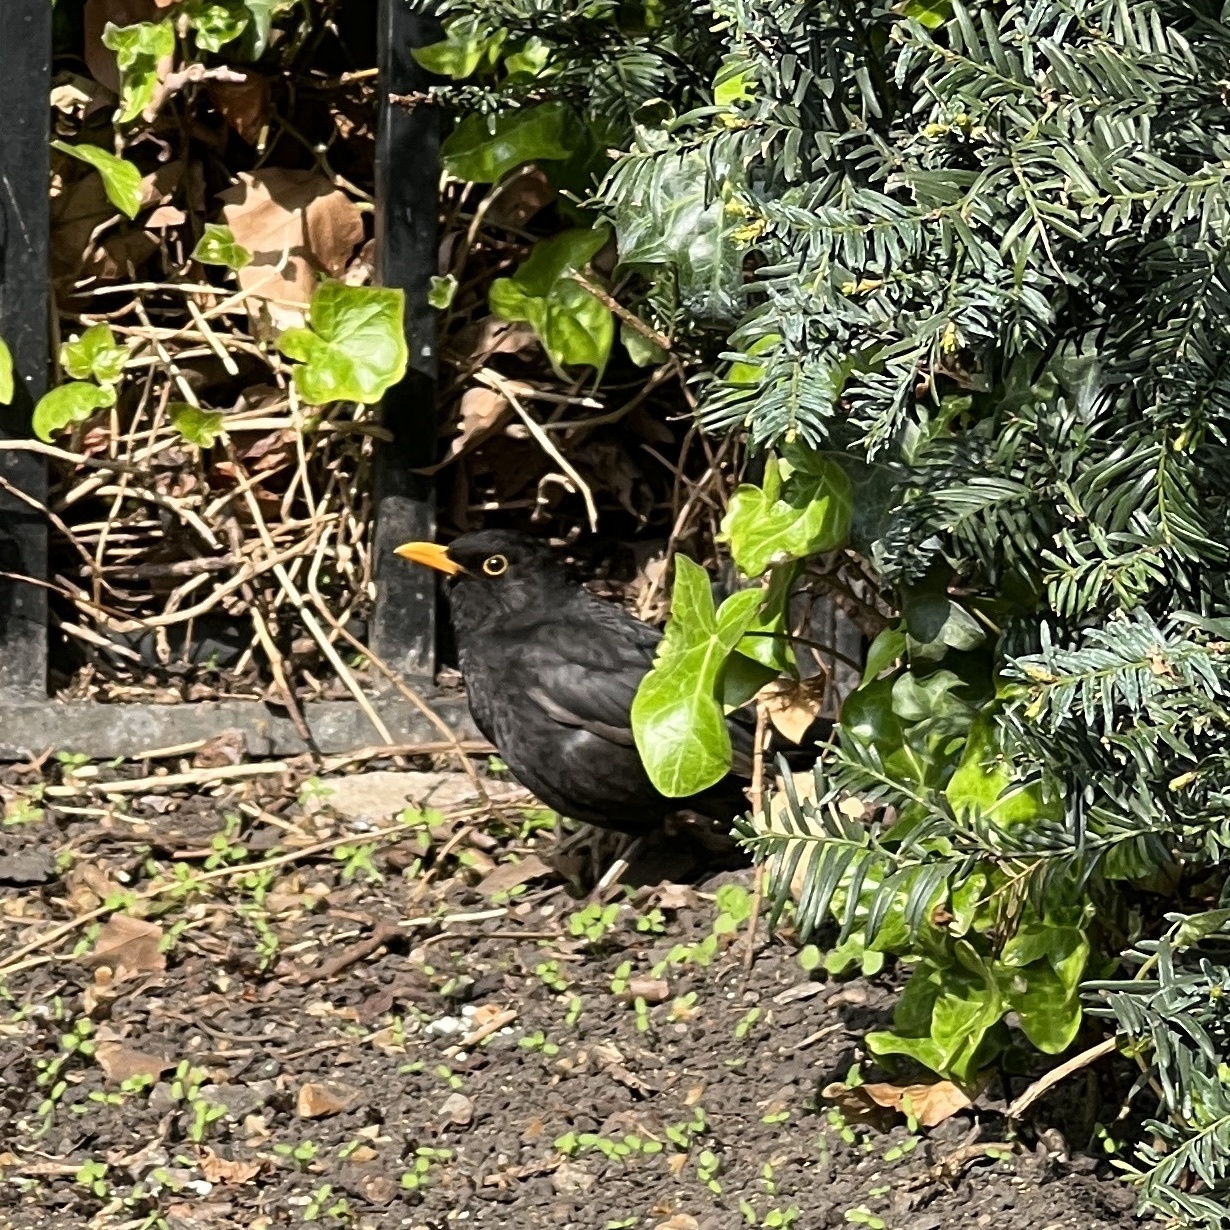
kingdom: Animalia
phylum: Chordata
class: Aves
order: Passeriformes
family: Turdidae
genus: Turdus
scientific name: Turdus merula
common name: Common blackbird
